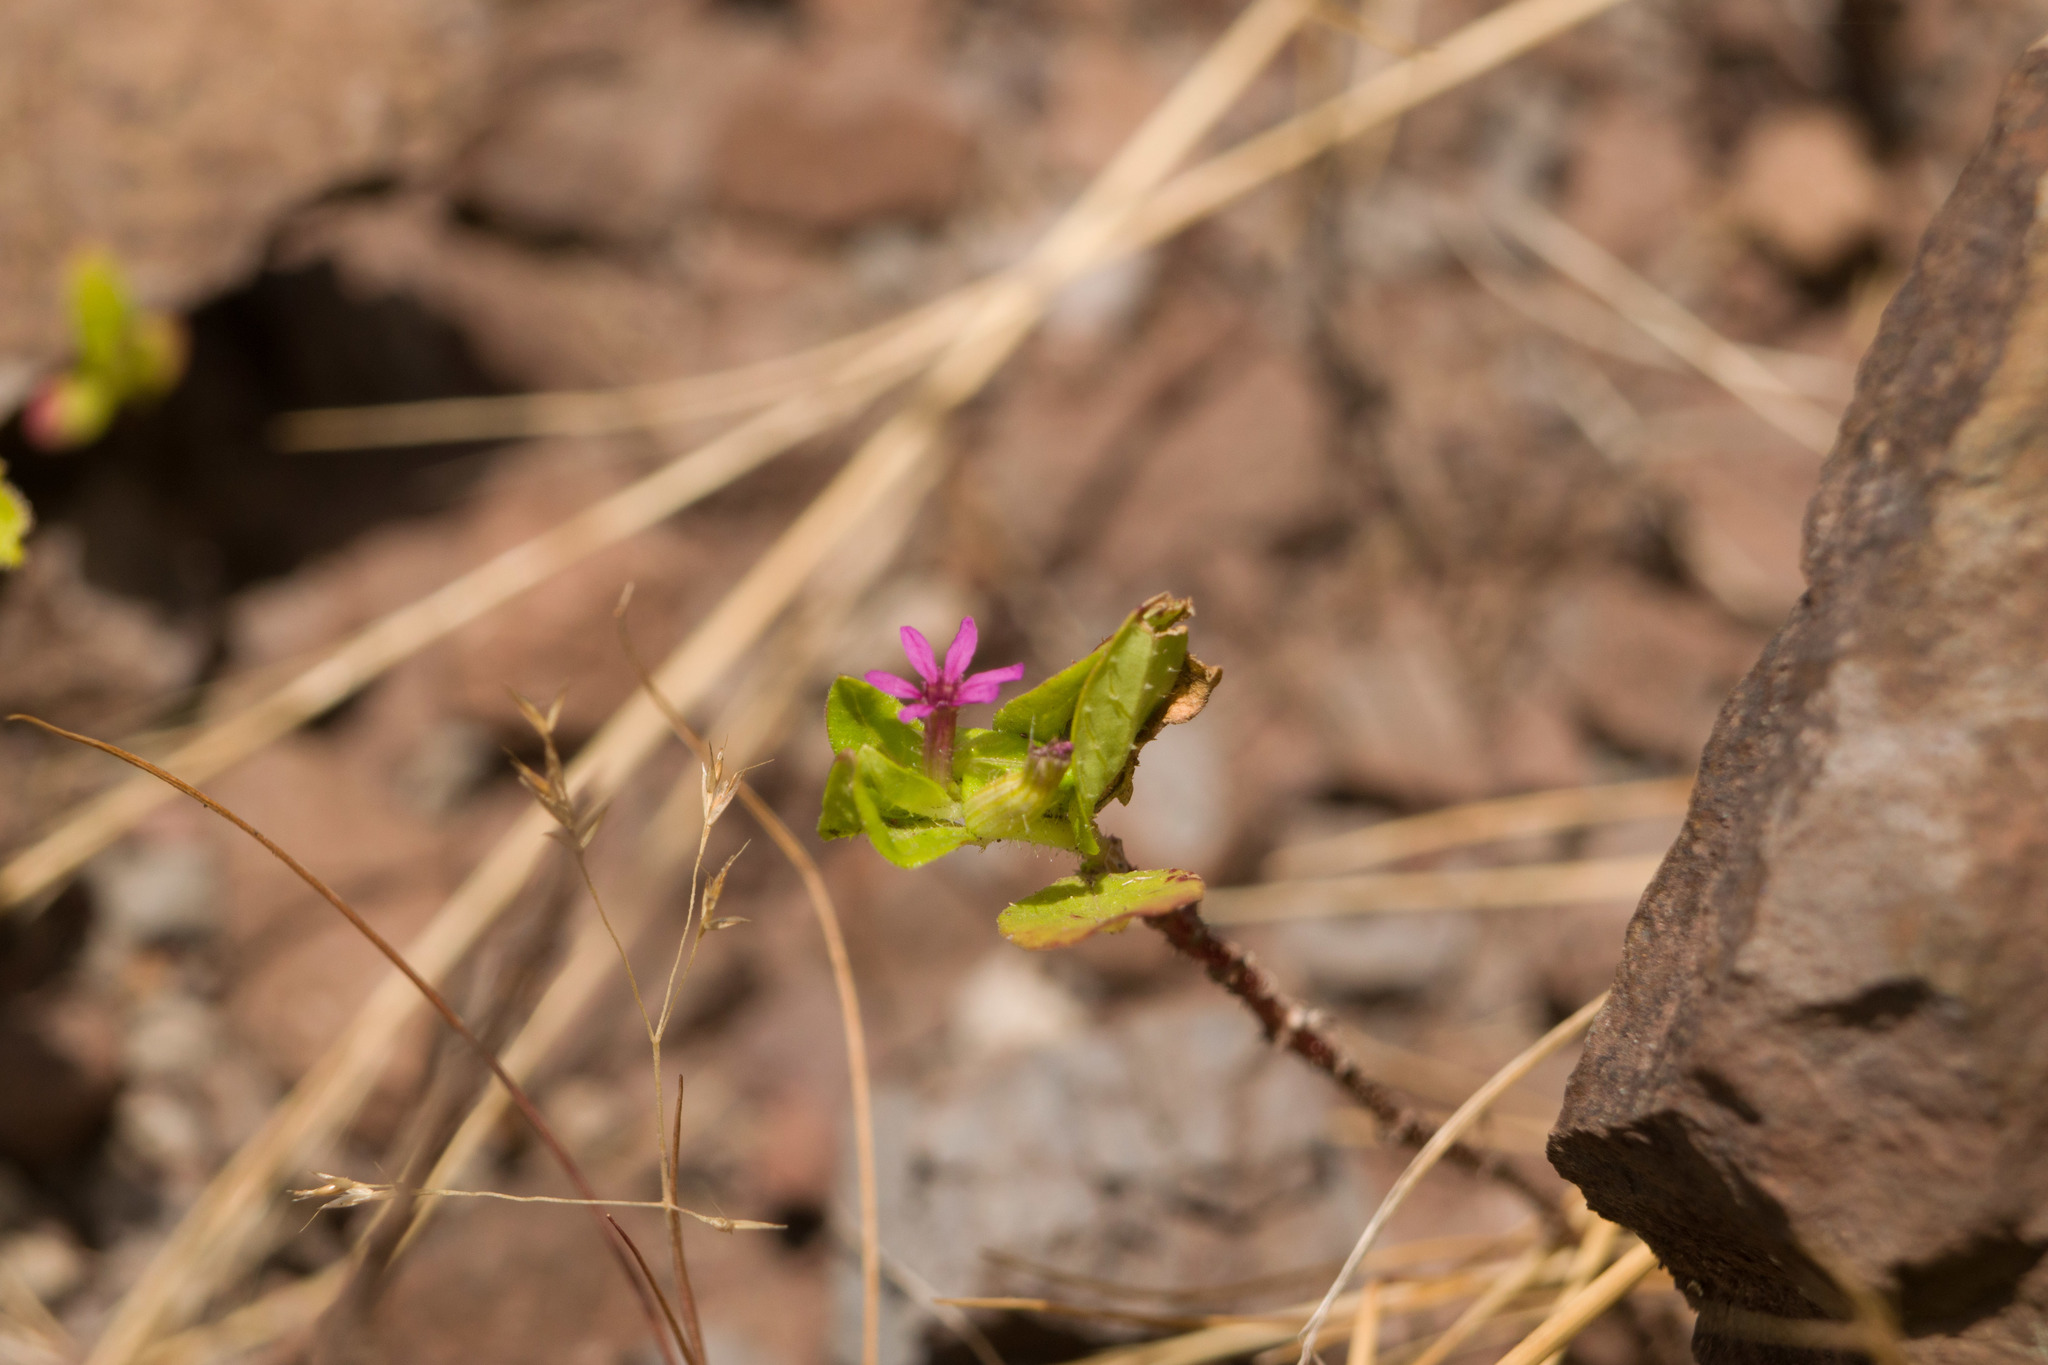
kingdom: Plantae
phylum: Tracheophyta
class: Magnoliopsida
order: Myrtales
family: Lythraceae
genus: Cuphea
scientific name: Cuphea carthagenensis
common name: Colombian waxweed
